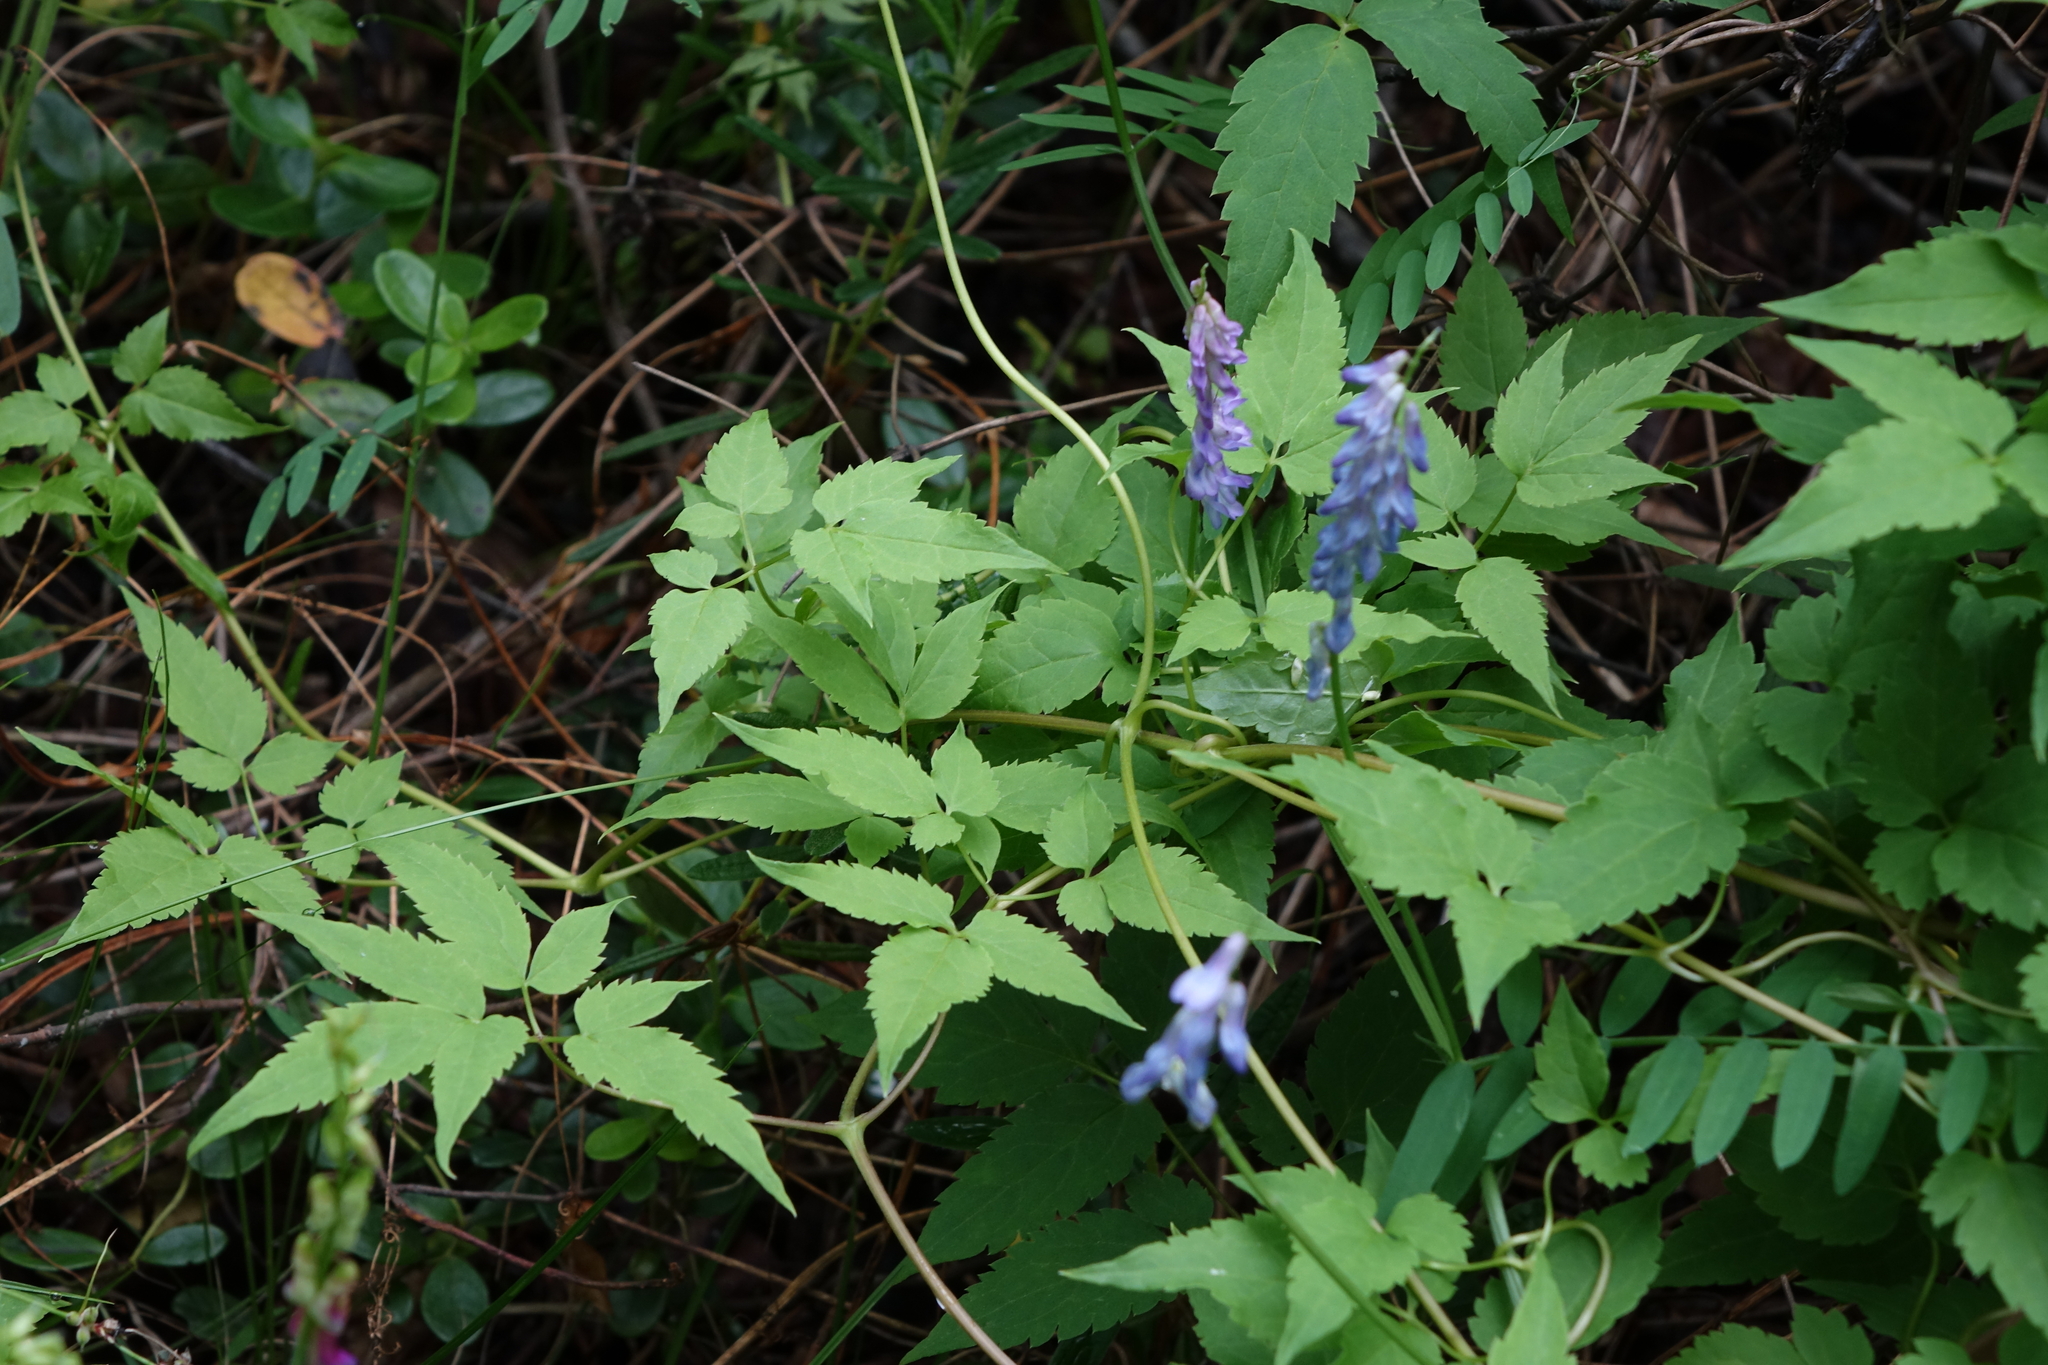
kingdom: Plantae
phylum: Tracheophyta
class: Magnoliopsida
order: Ranunculales
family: Ranunculaceae
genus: Clematis
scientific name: Clematis sibirica
